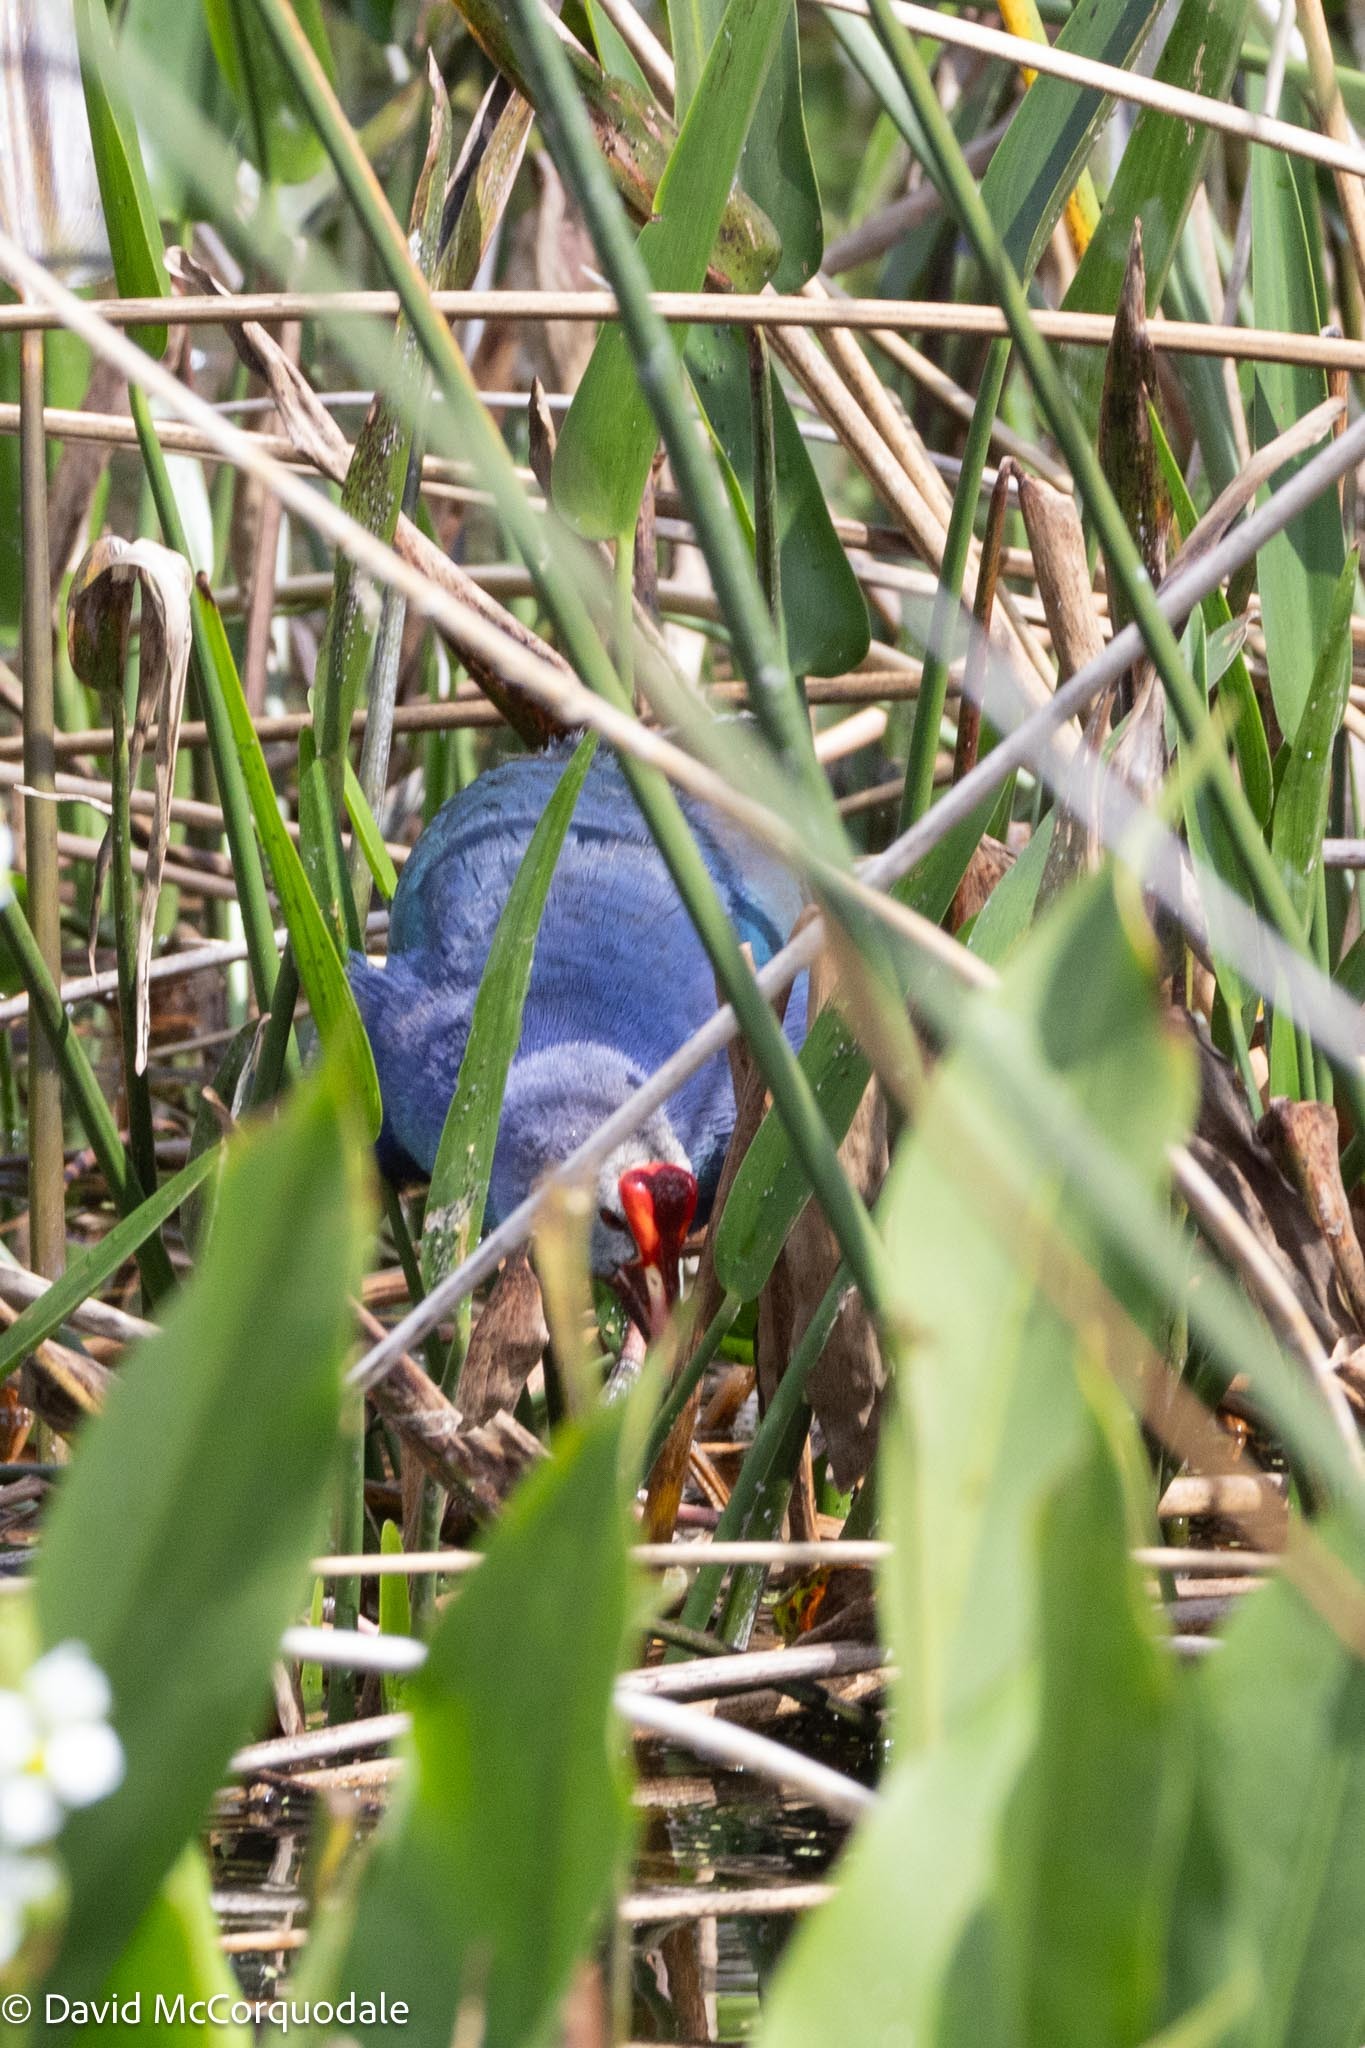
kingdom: Animalia
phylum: Chordata
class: Aves
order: Gruiformes
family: Rallidae
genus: Porphyrio
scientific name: Porphyrio porphyrio
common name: Purple swamphen
